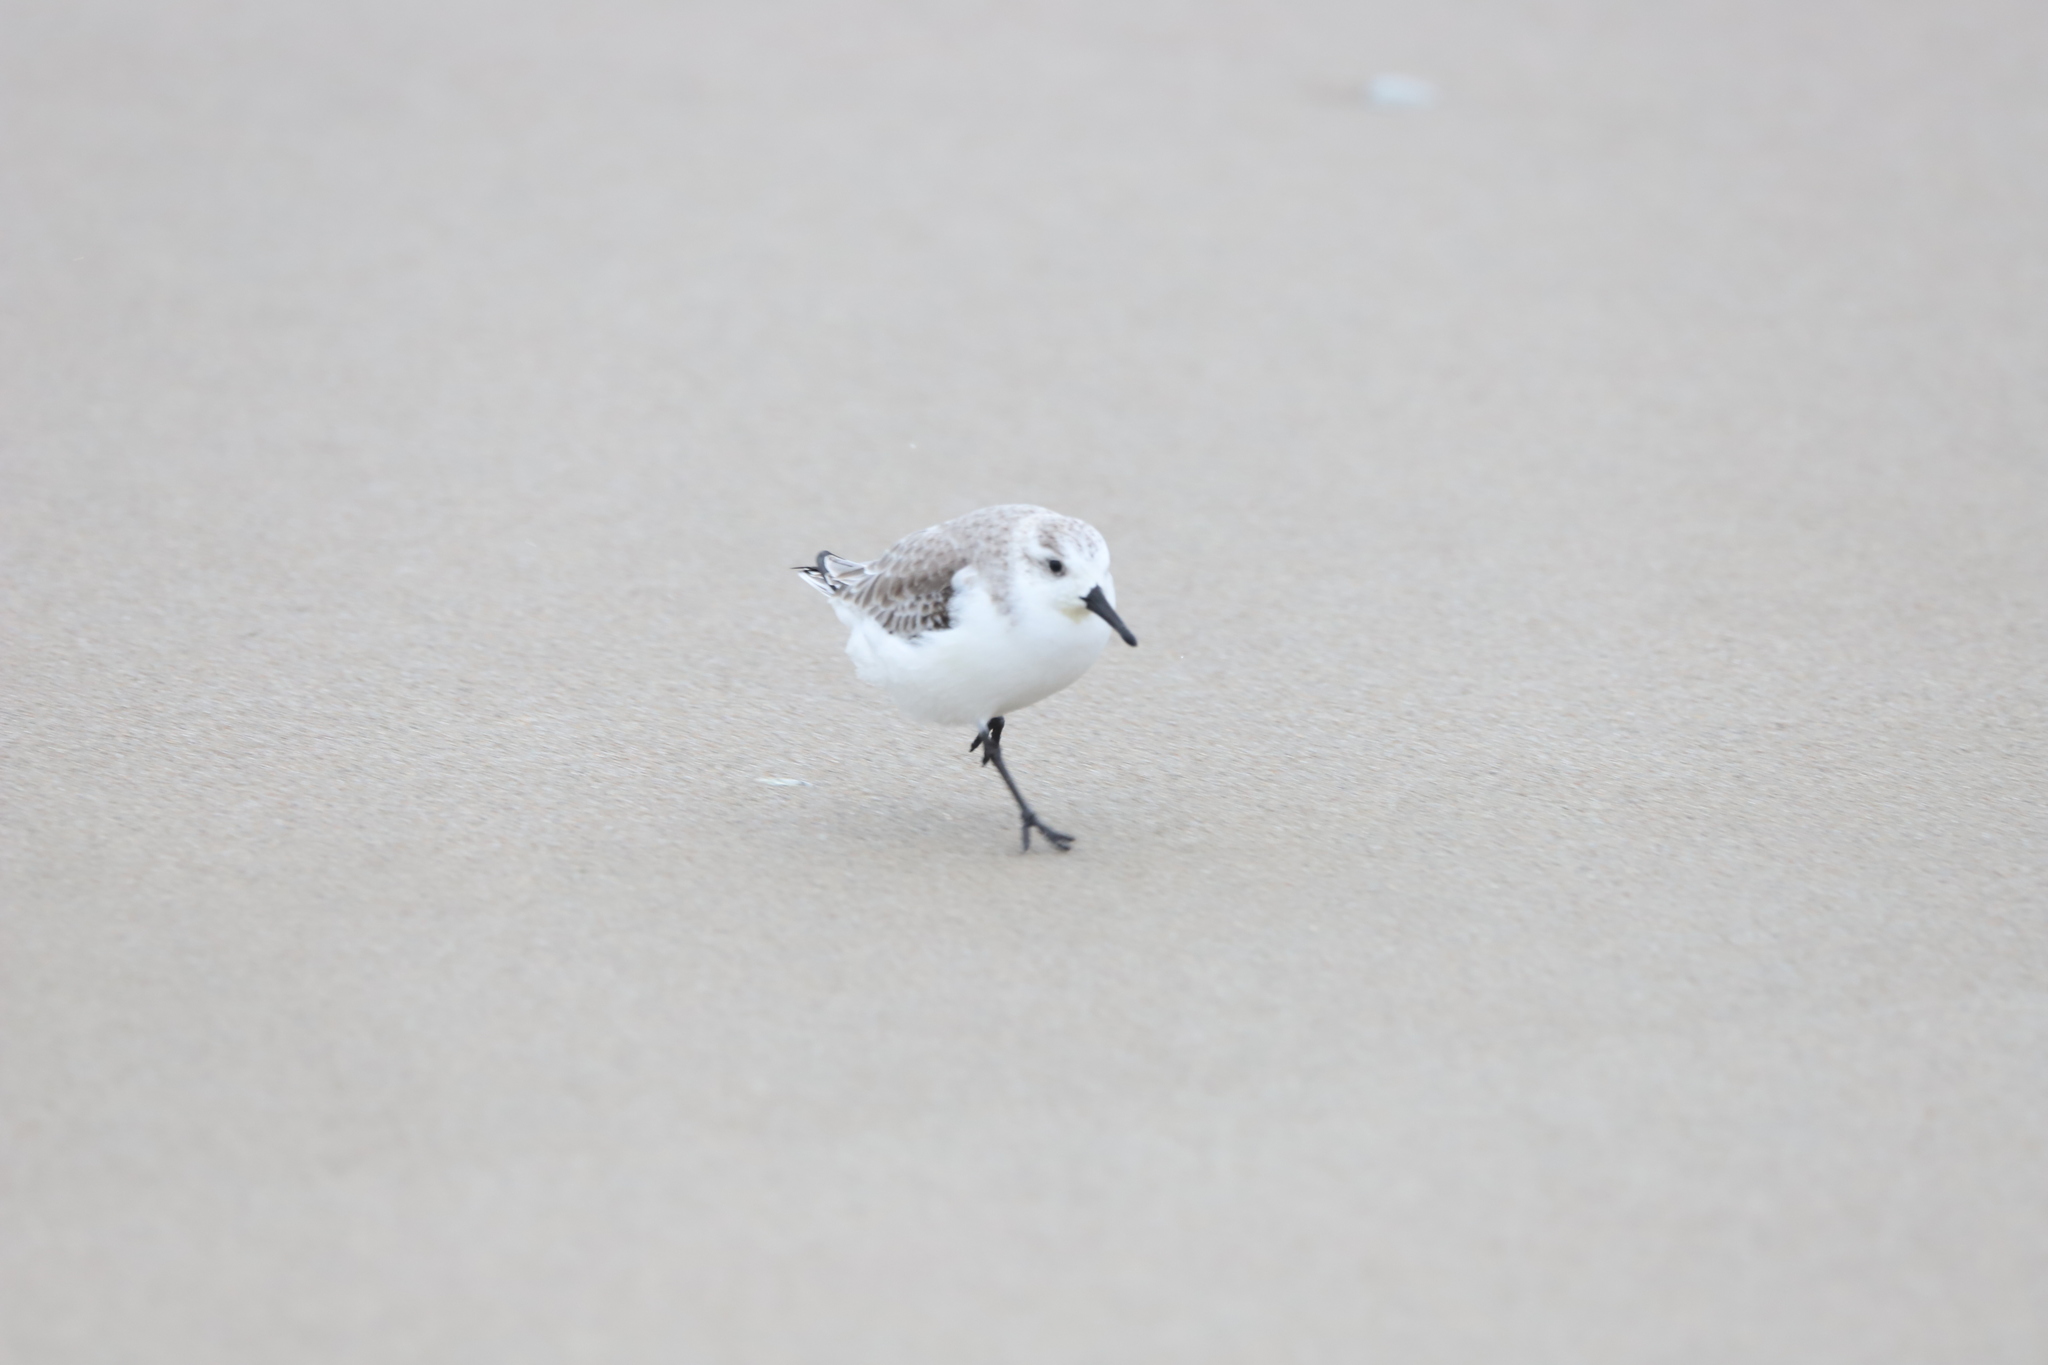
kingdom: Animalia
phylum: Chordata
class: Aves
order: Charadriiformes
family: Scolopacidae
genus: Calidris
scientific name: Calidris alba
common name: Sanderling
